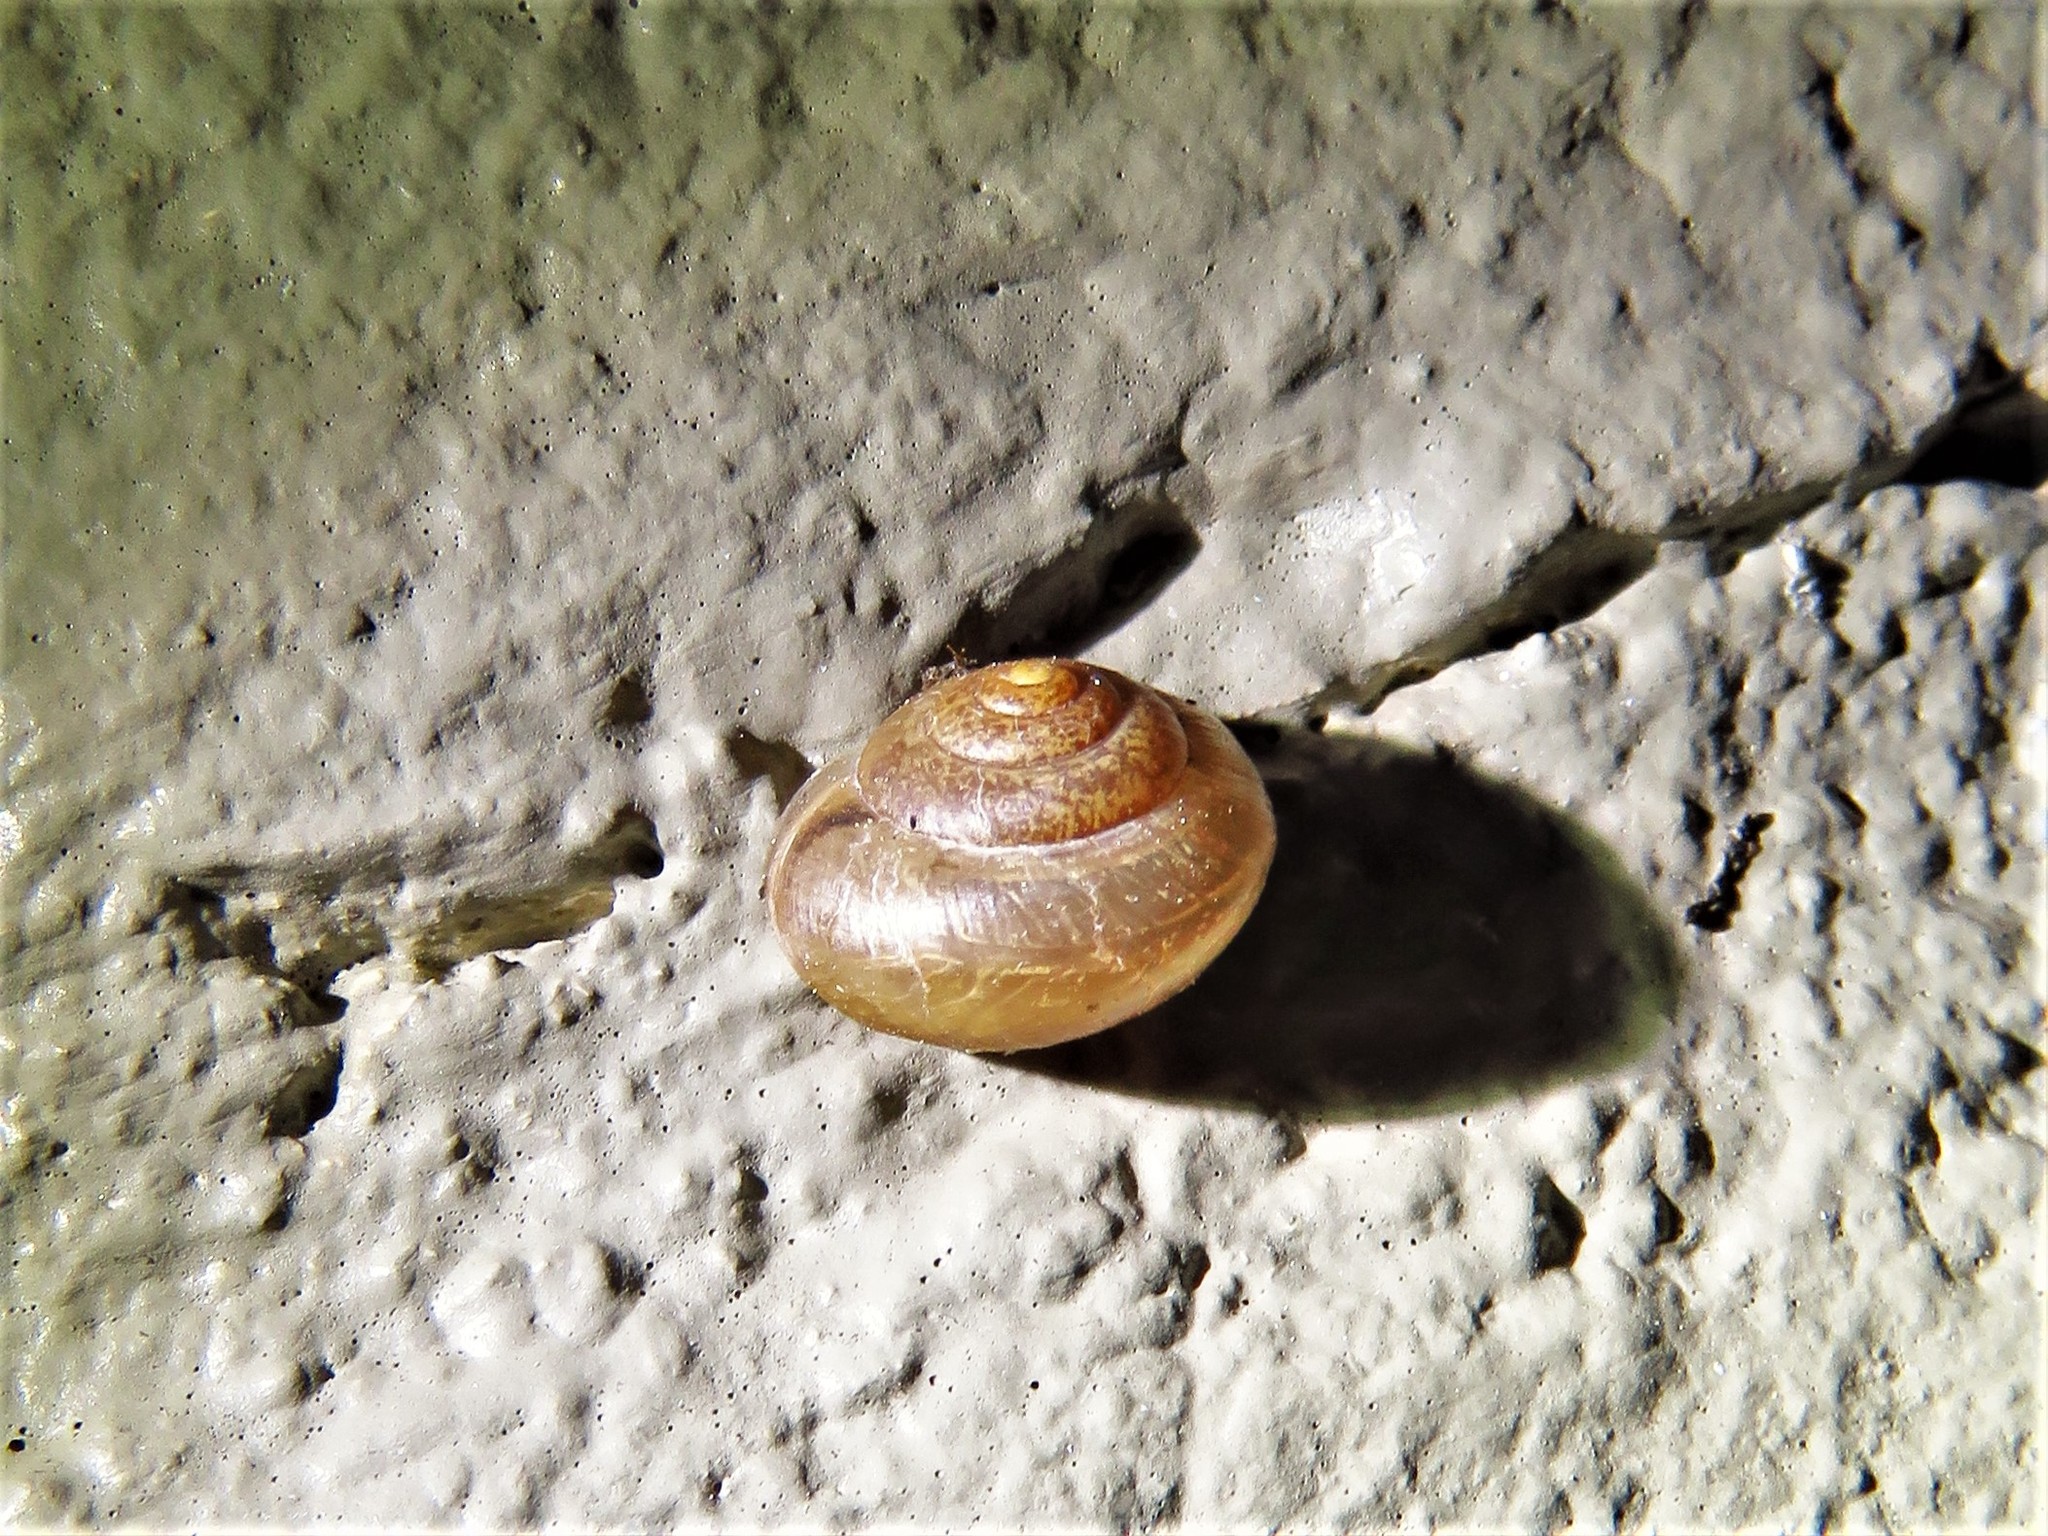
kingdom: Animalia
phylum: Mollusca
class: Gastropoda
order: Stylommatophora
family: Camaenidae
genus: Bradybaena
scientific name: Bradybaena similaris
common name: Asian trampsnail
